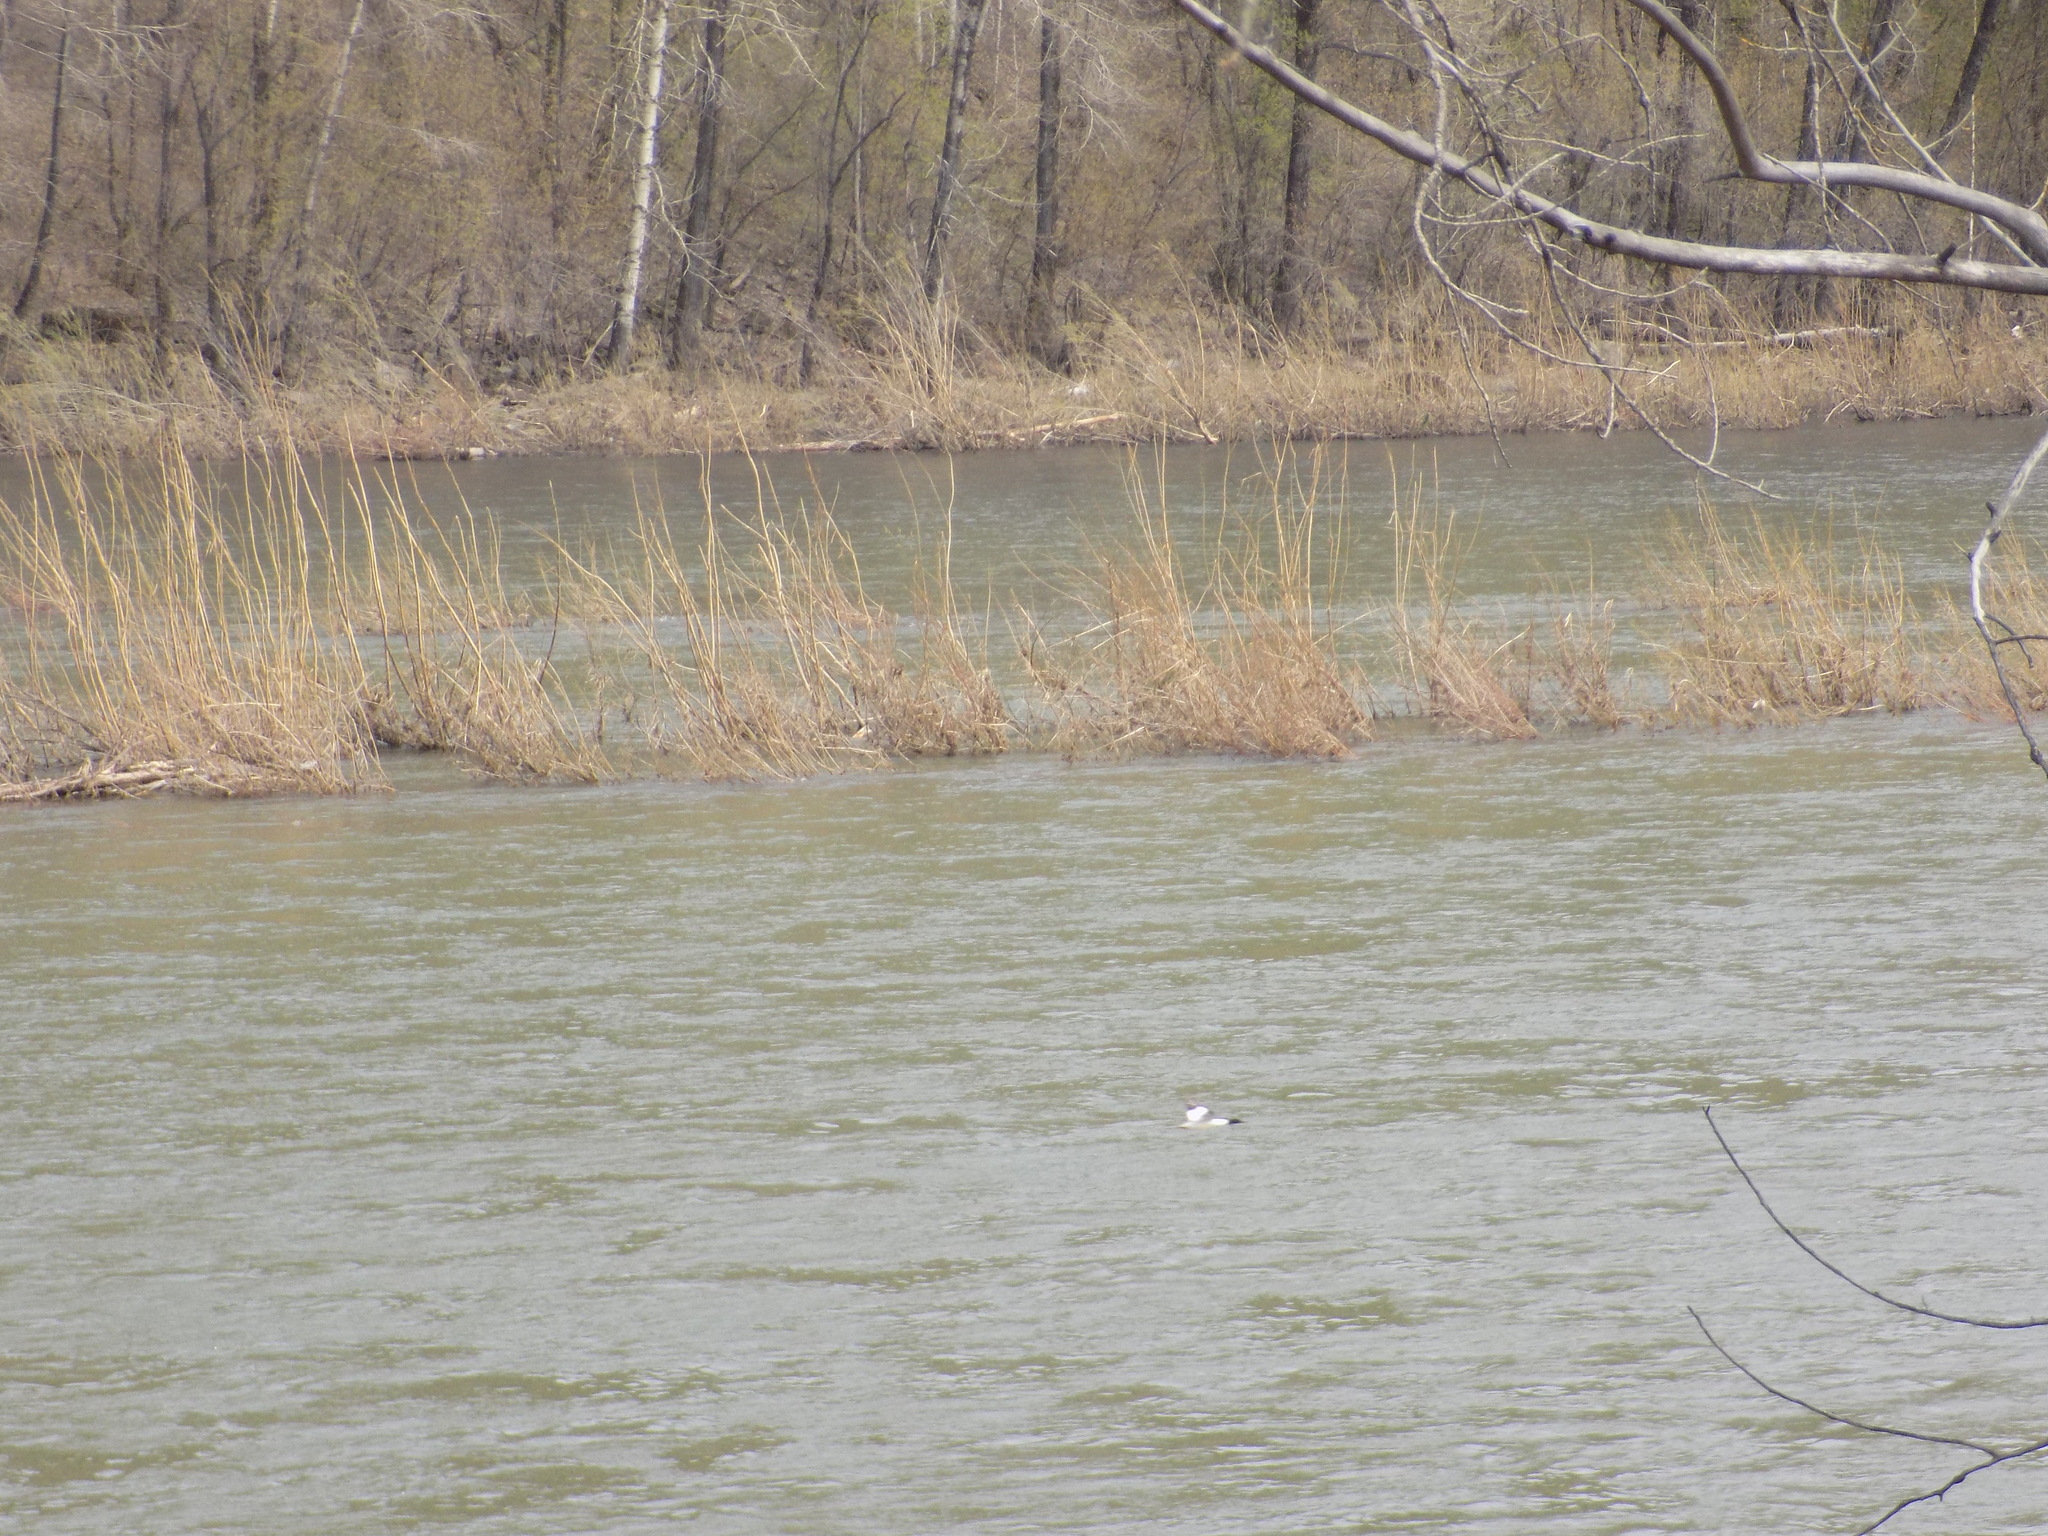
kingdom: Animalia
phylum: Chordata
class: Aves
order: Anseriformes
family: Anatidae
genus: Mergus
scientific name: Mergus merganser
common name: Common merganser
